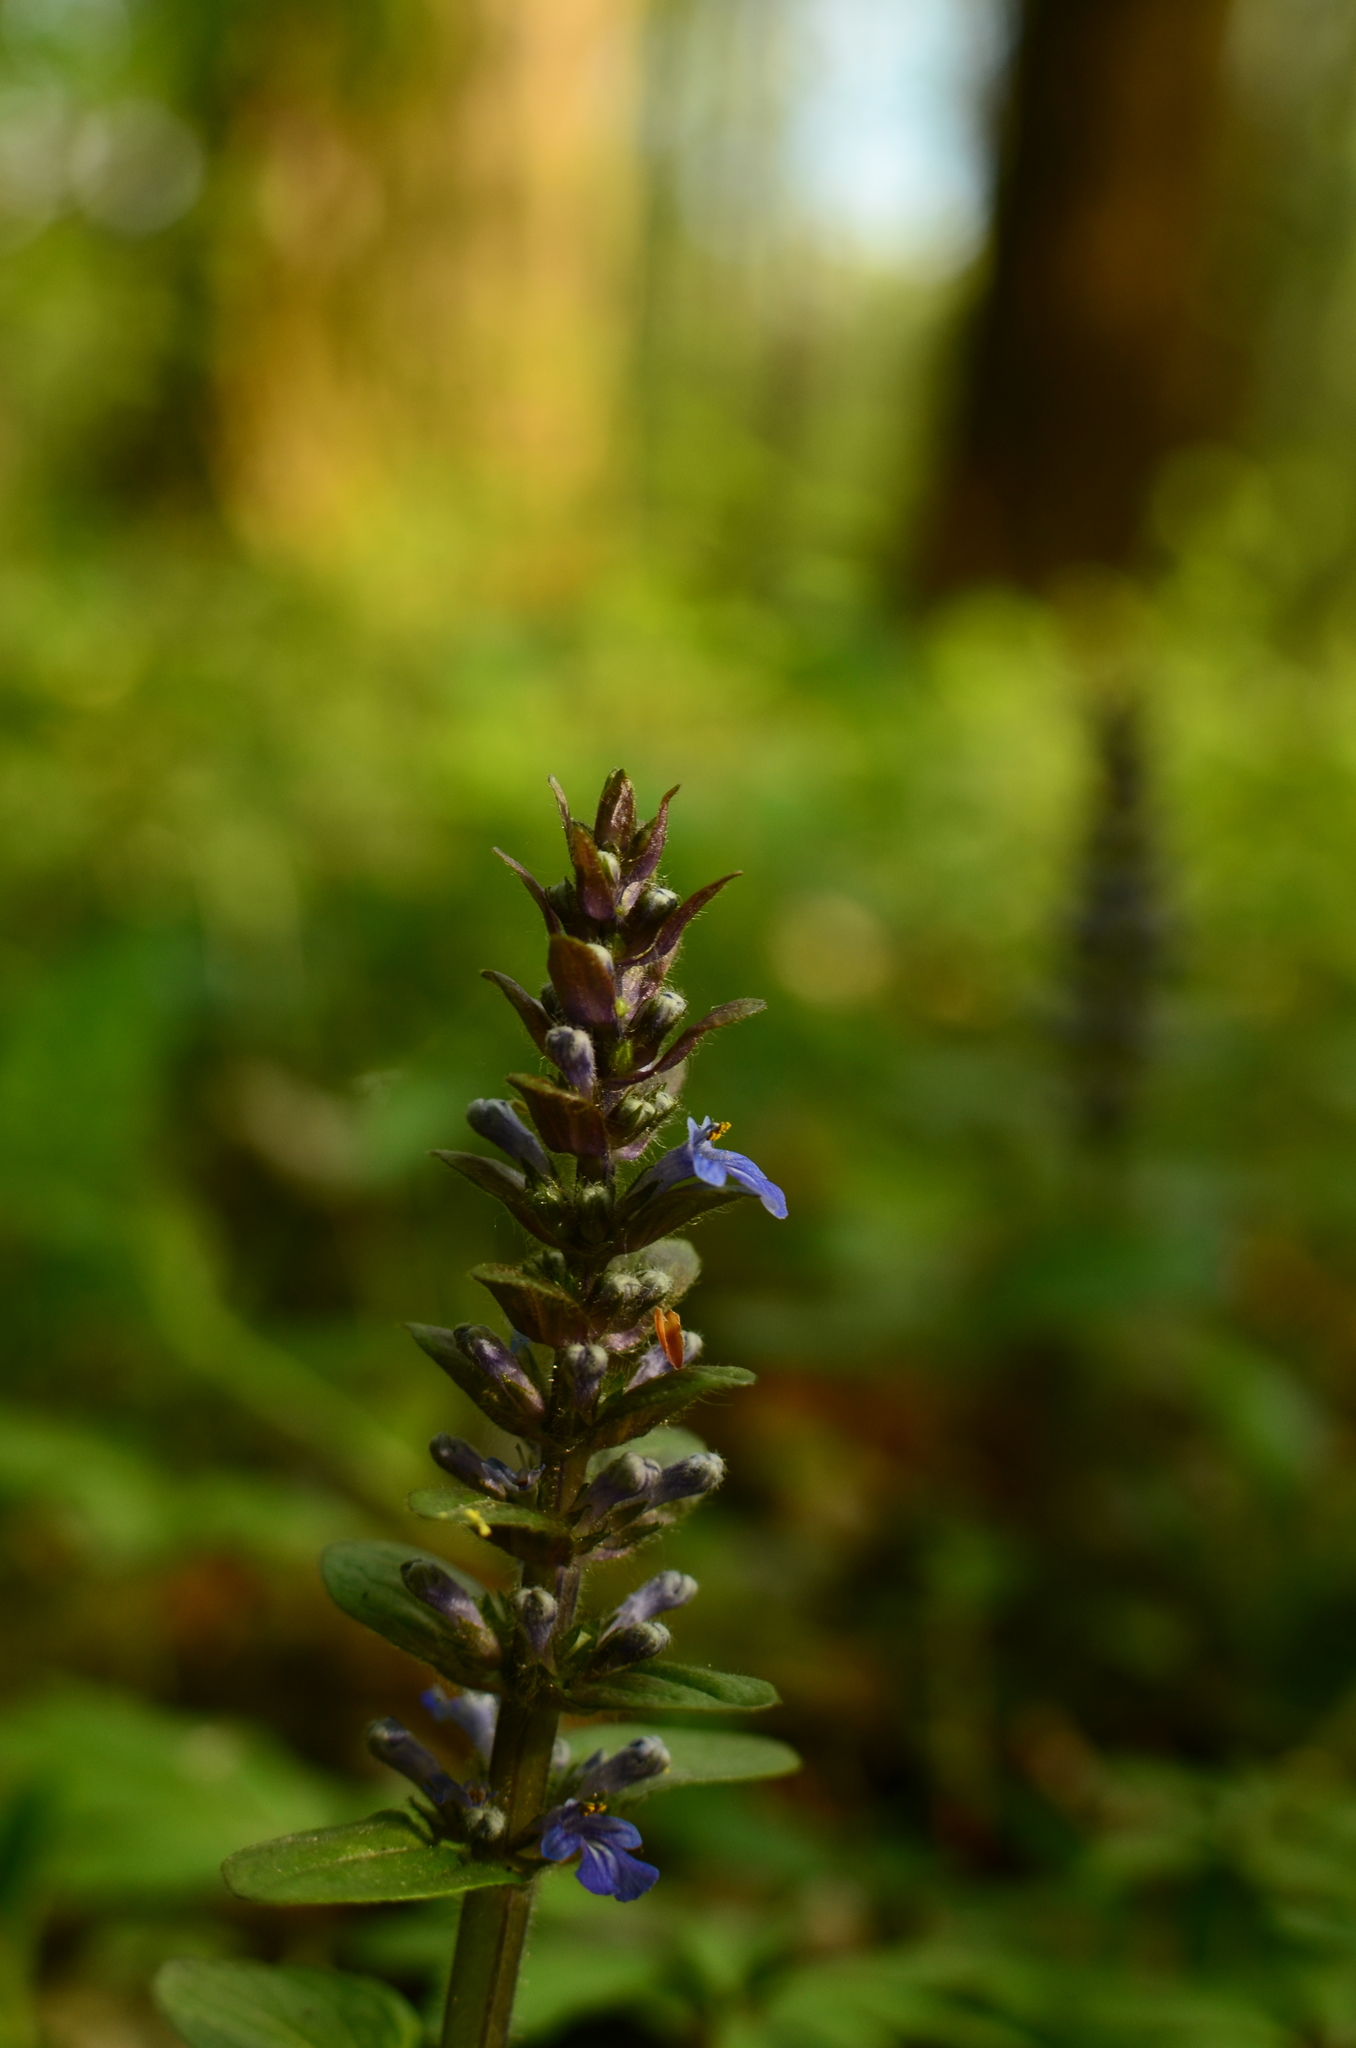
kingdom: Plantae
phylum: Tracheophyta
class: Magnoliopsida
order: Lamiales
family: Lamiaceae
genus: Ajuga
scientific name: Ajuga reptans
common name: Bugle
